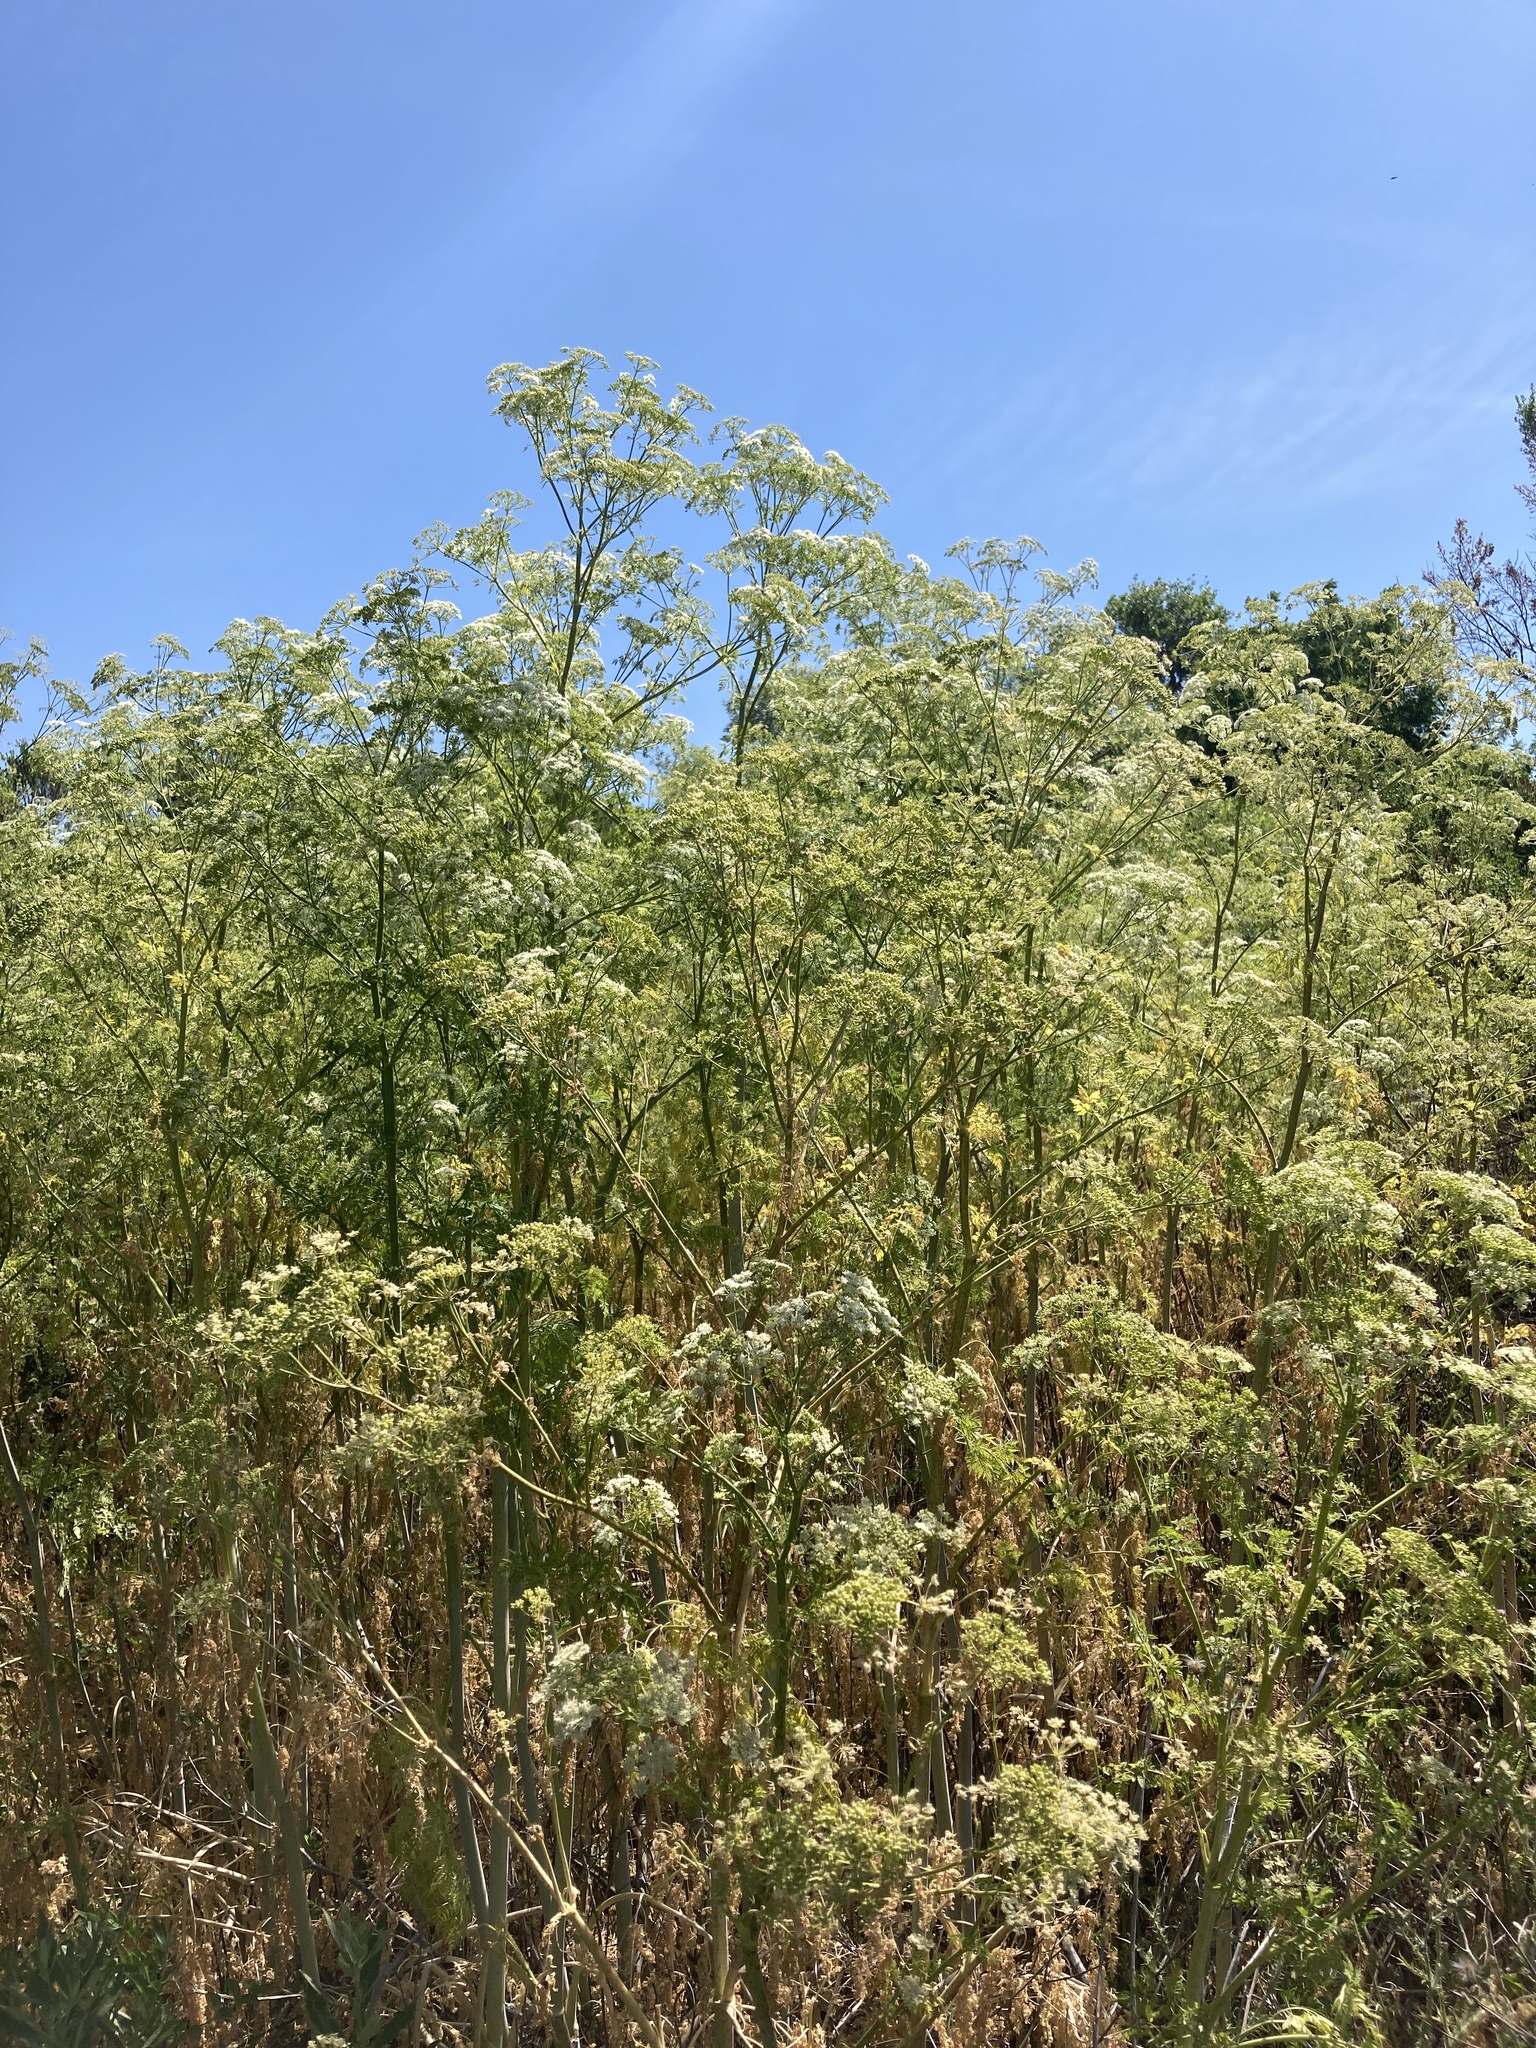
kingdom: Plantae
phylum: Tracheophyta
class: Magnoliopsida
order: Apiales
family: Apiaceae
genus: Conium
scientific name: Conium maculatum
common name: Hemlock
